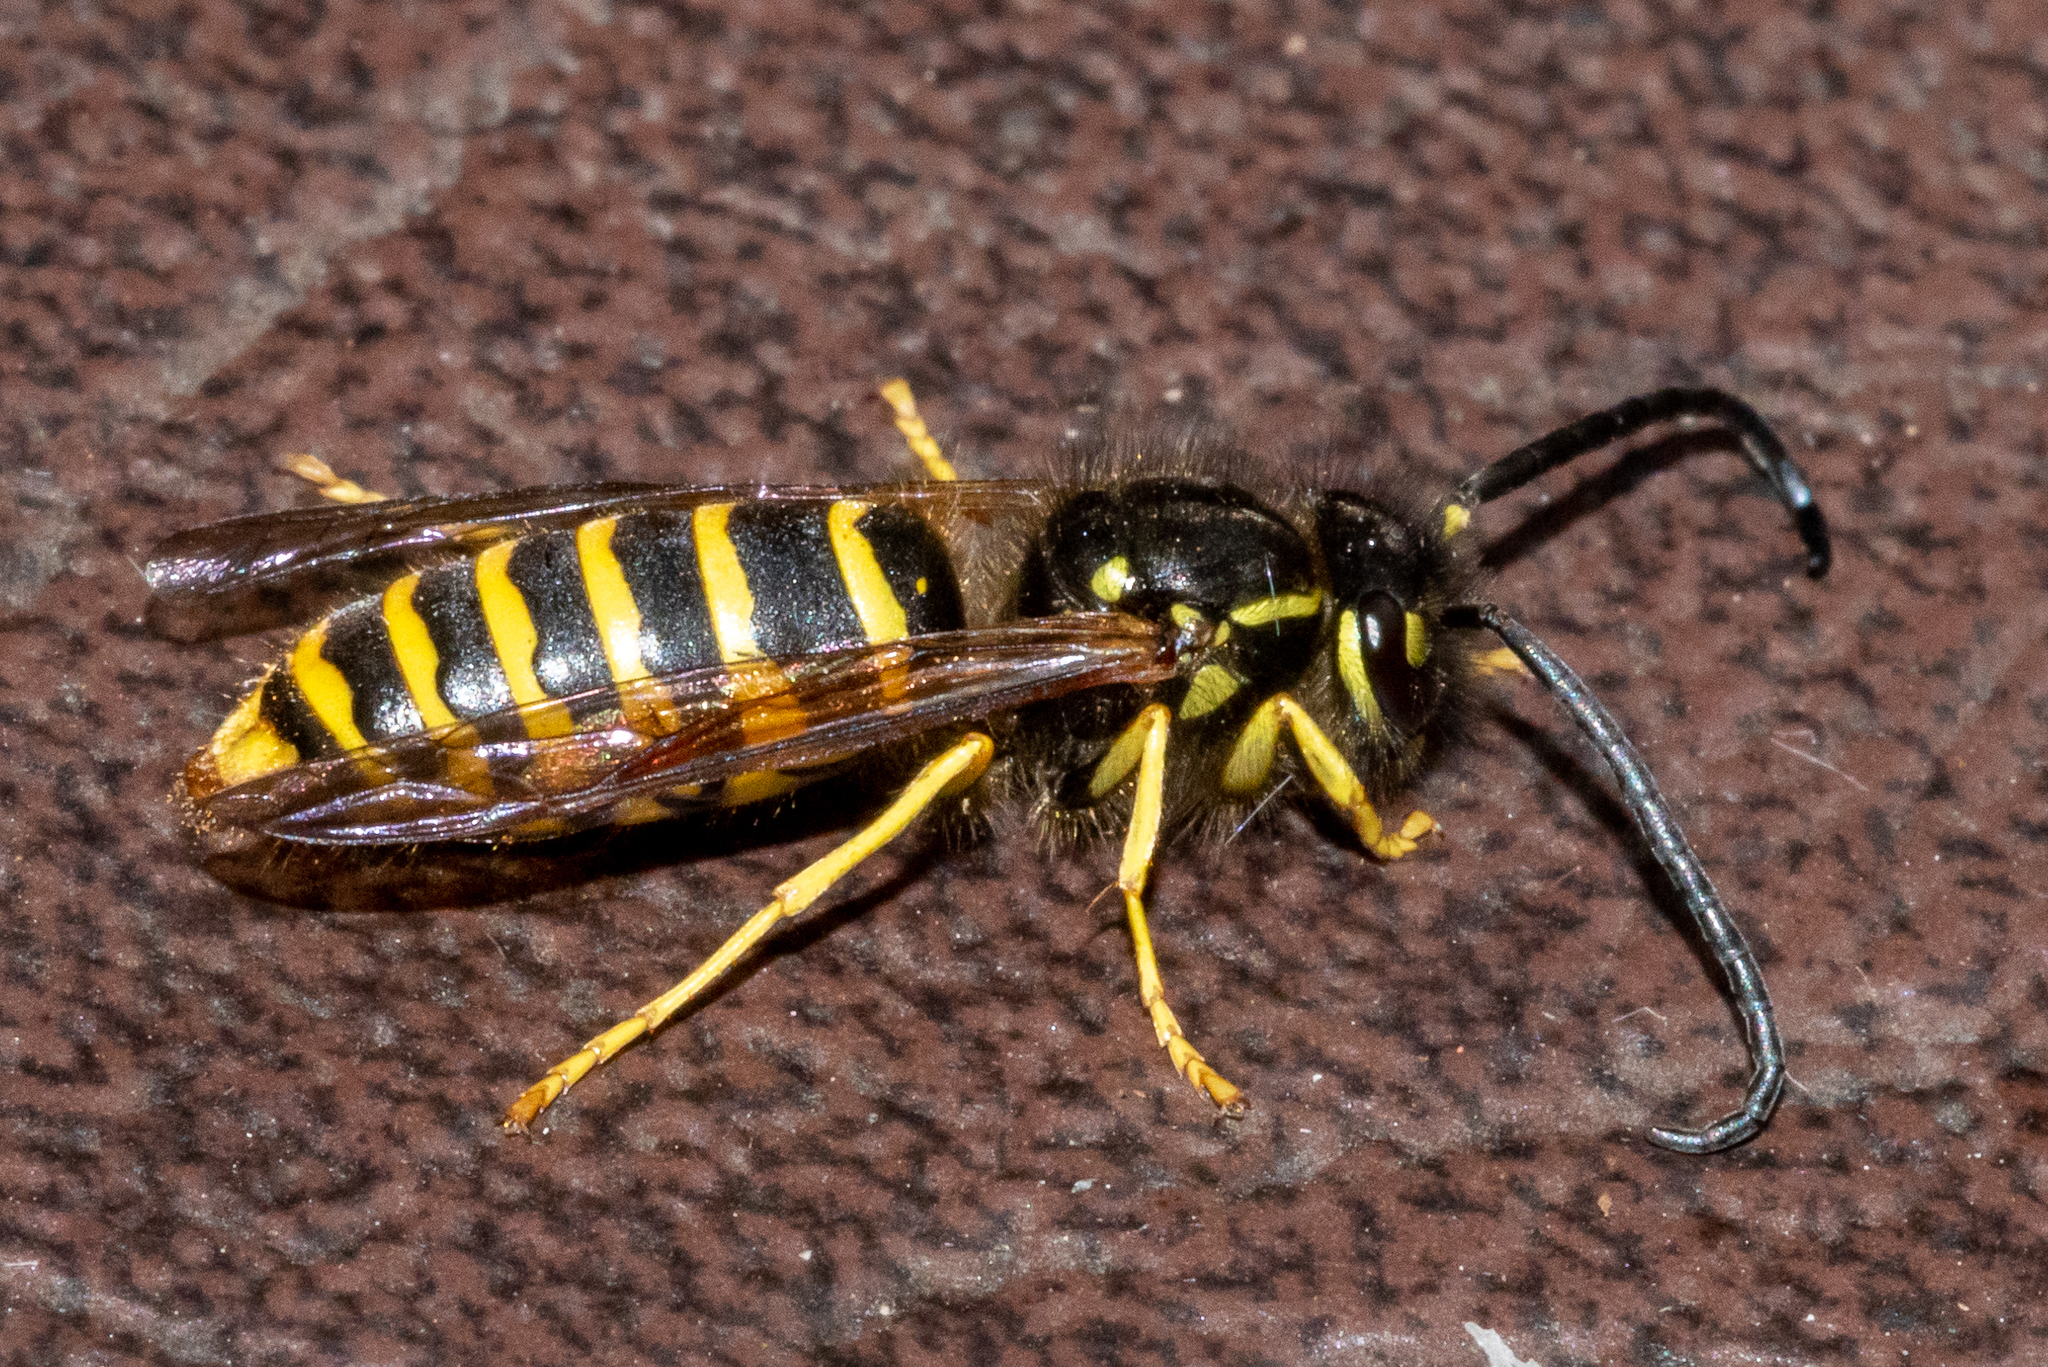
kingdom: Animalia
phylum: Arthropoda
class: Insecta
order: Hymenoptera
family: Vespidae
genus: Vespula
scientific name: Vespula
